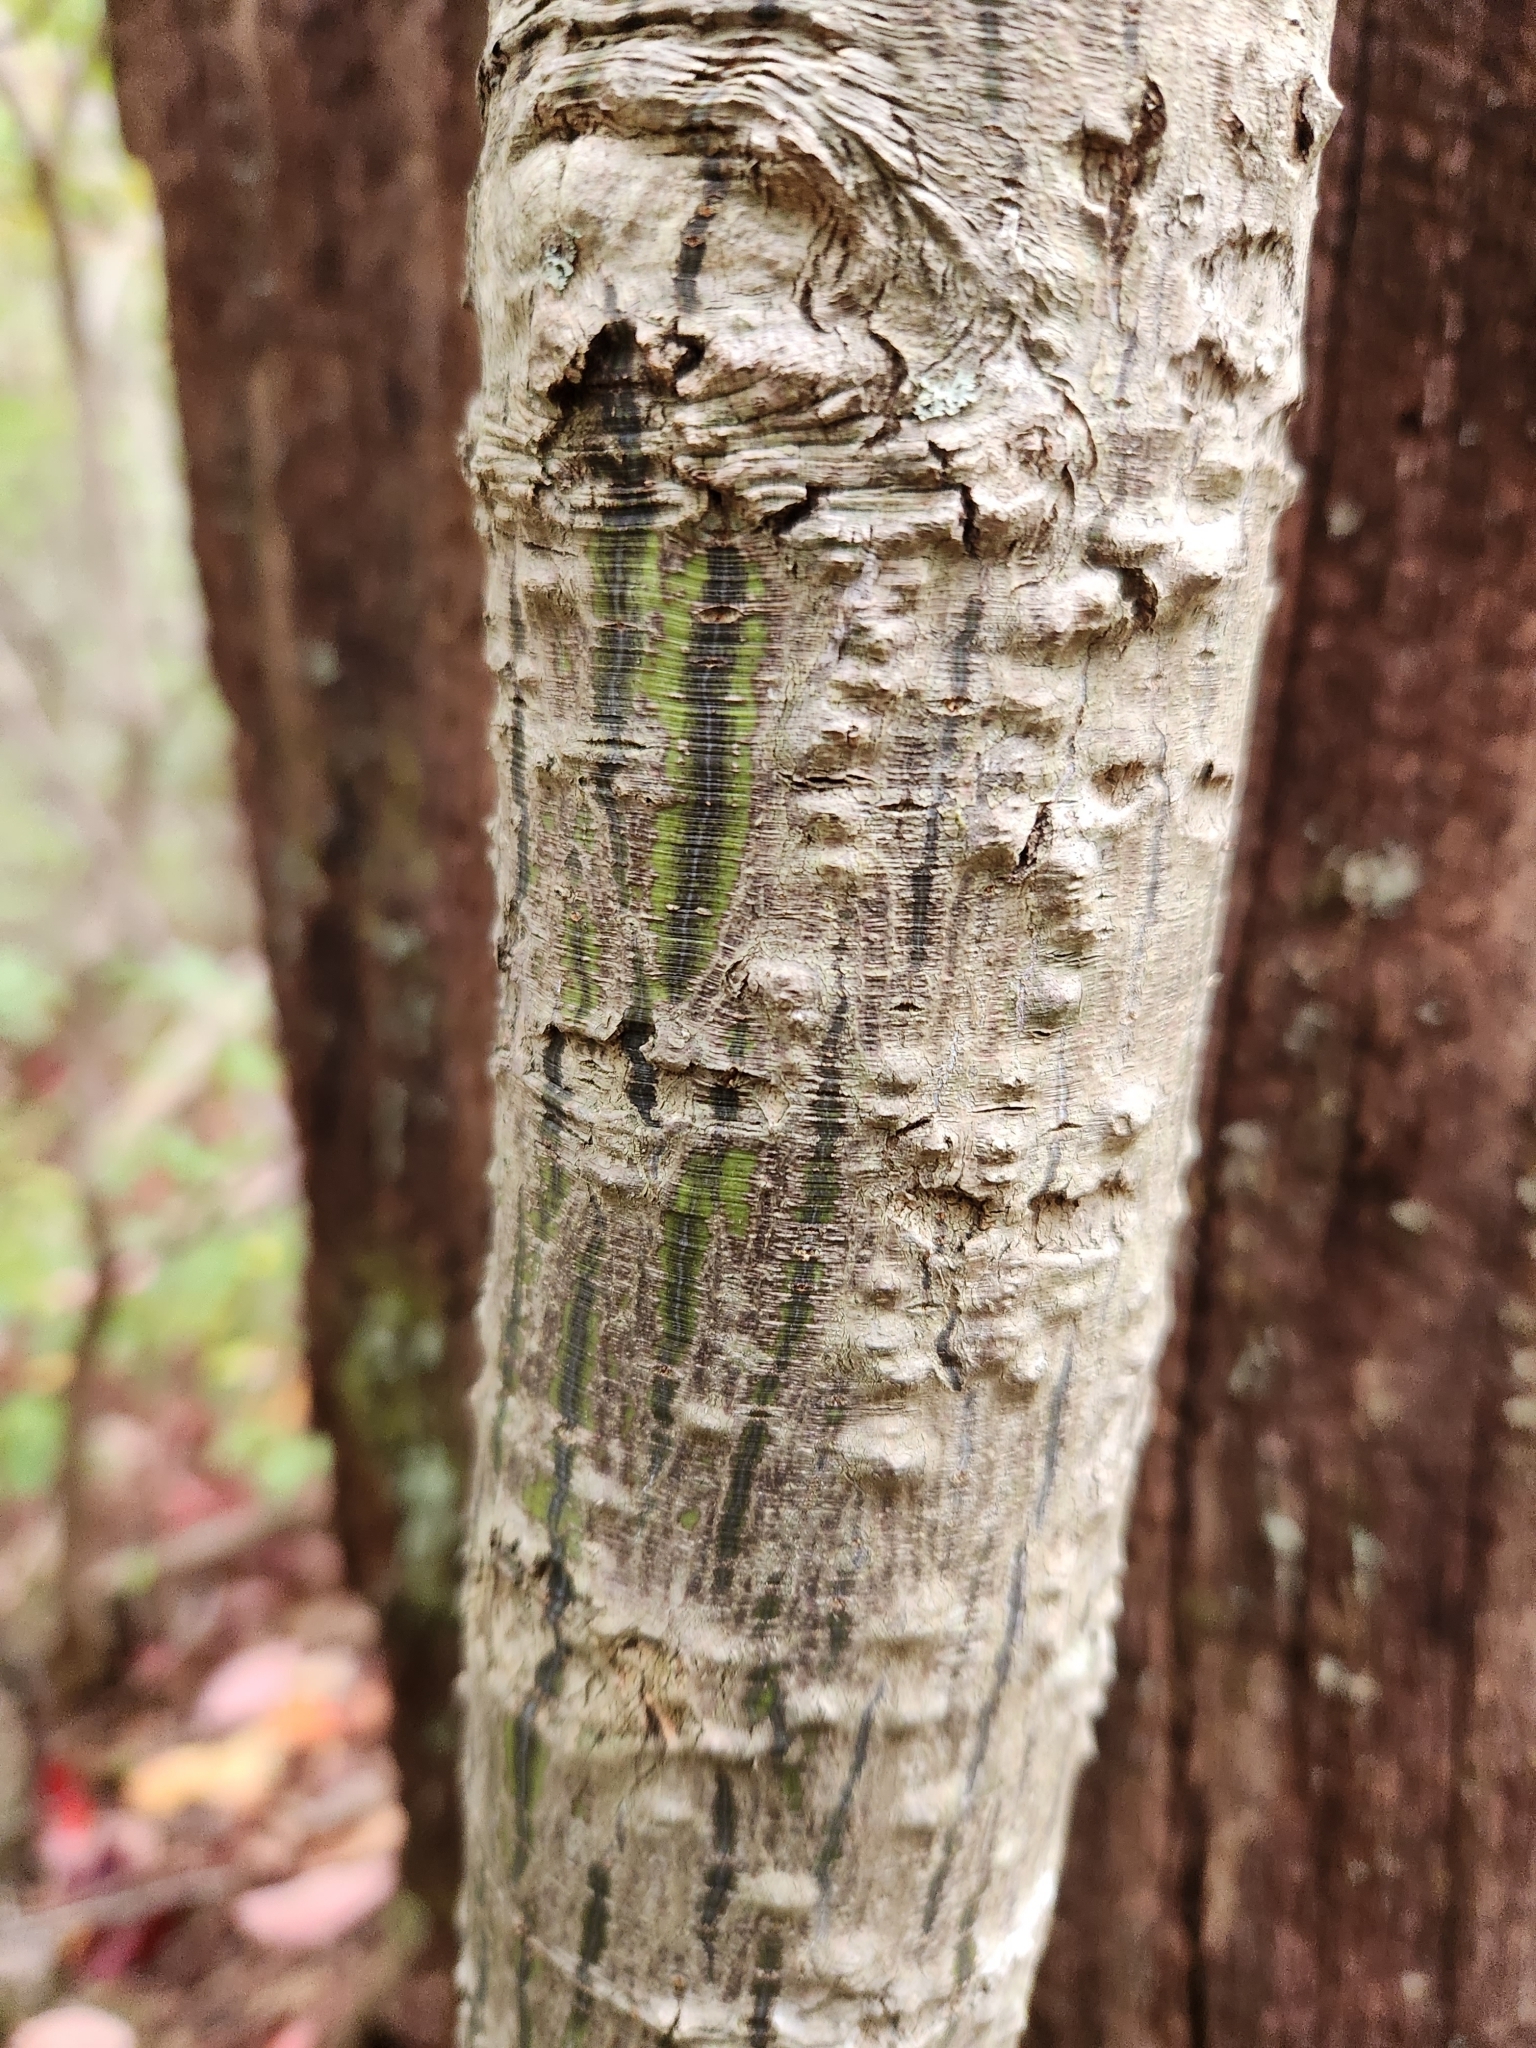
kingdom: Plantae
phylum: Tracheophyta
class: Magnoliopsida
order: Sapindales
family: Sapindaceae
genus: Acer
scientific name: Acer pensylvanicum
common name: Moosewood
